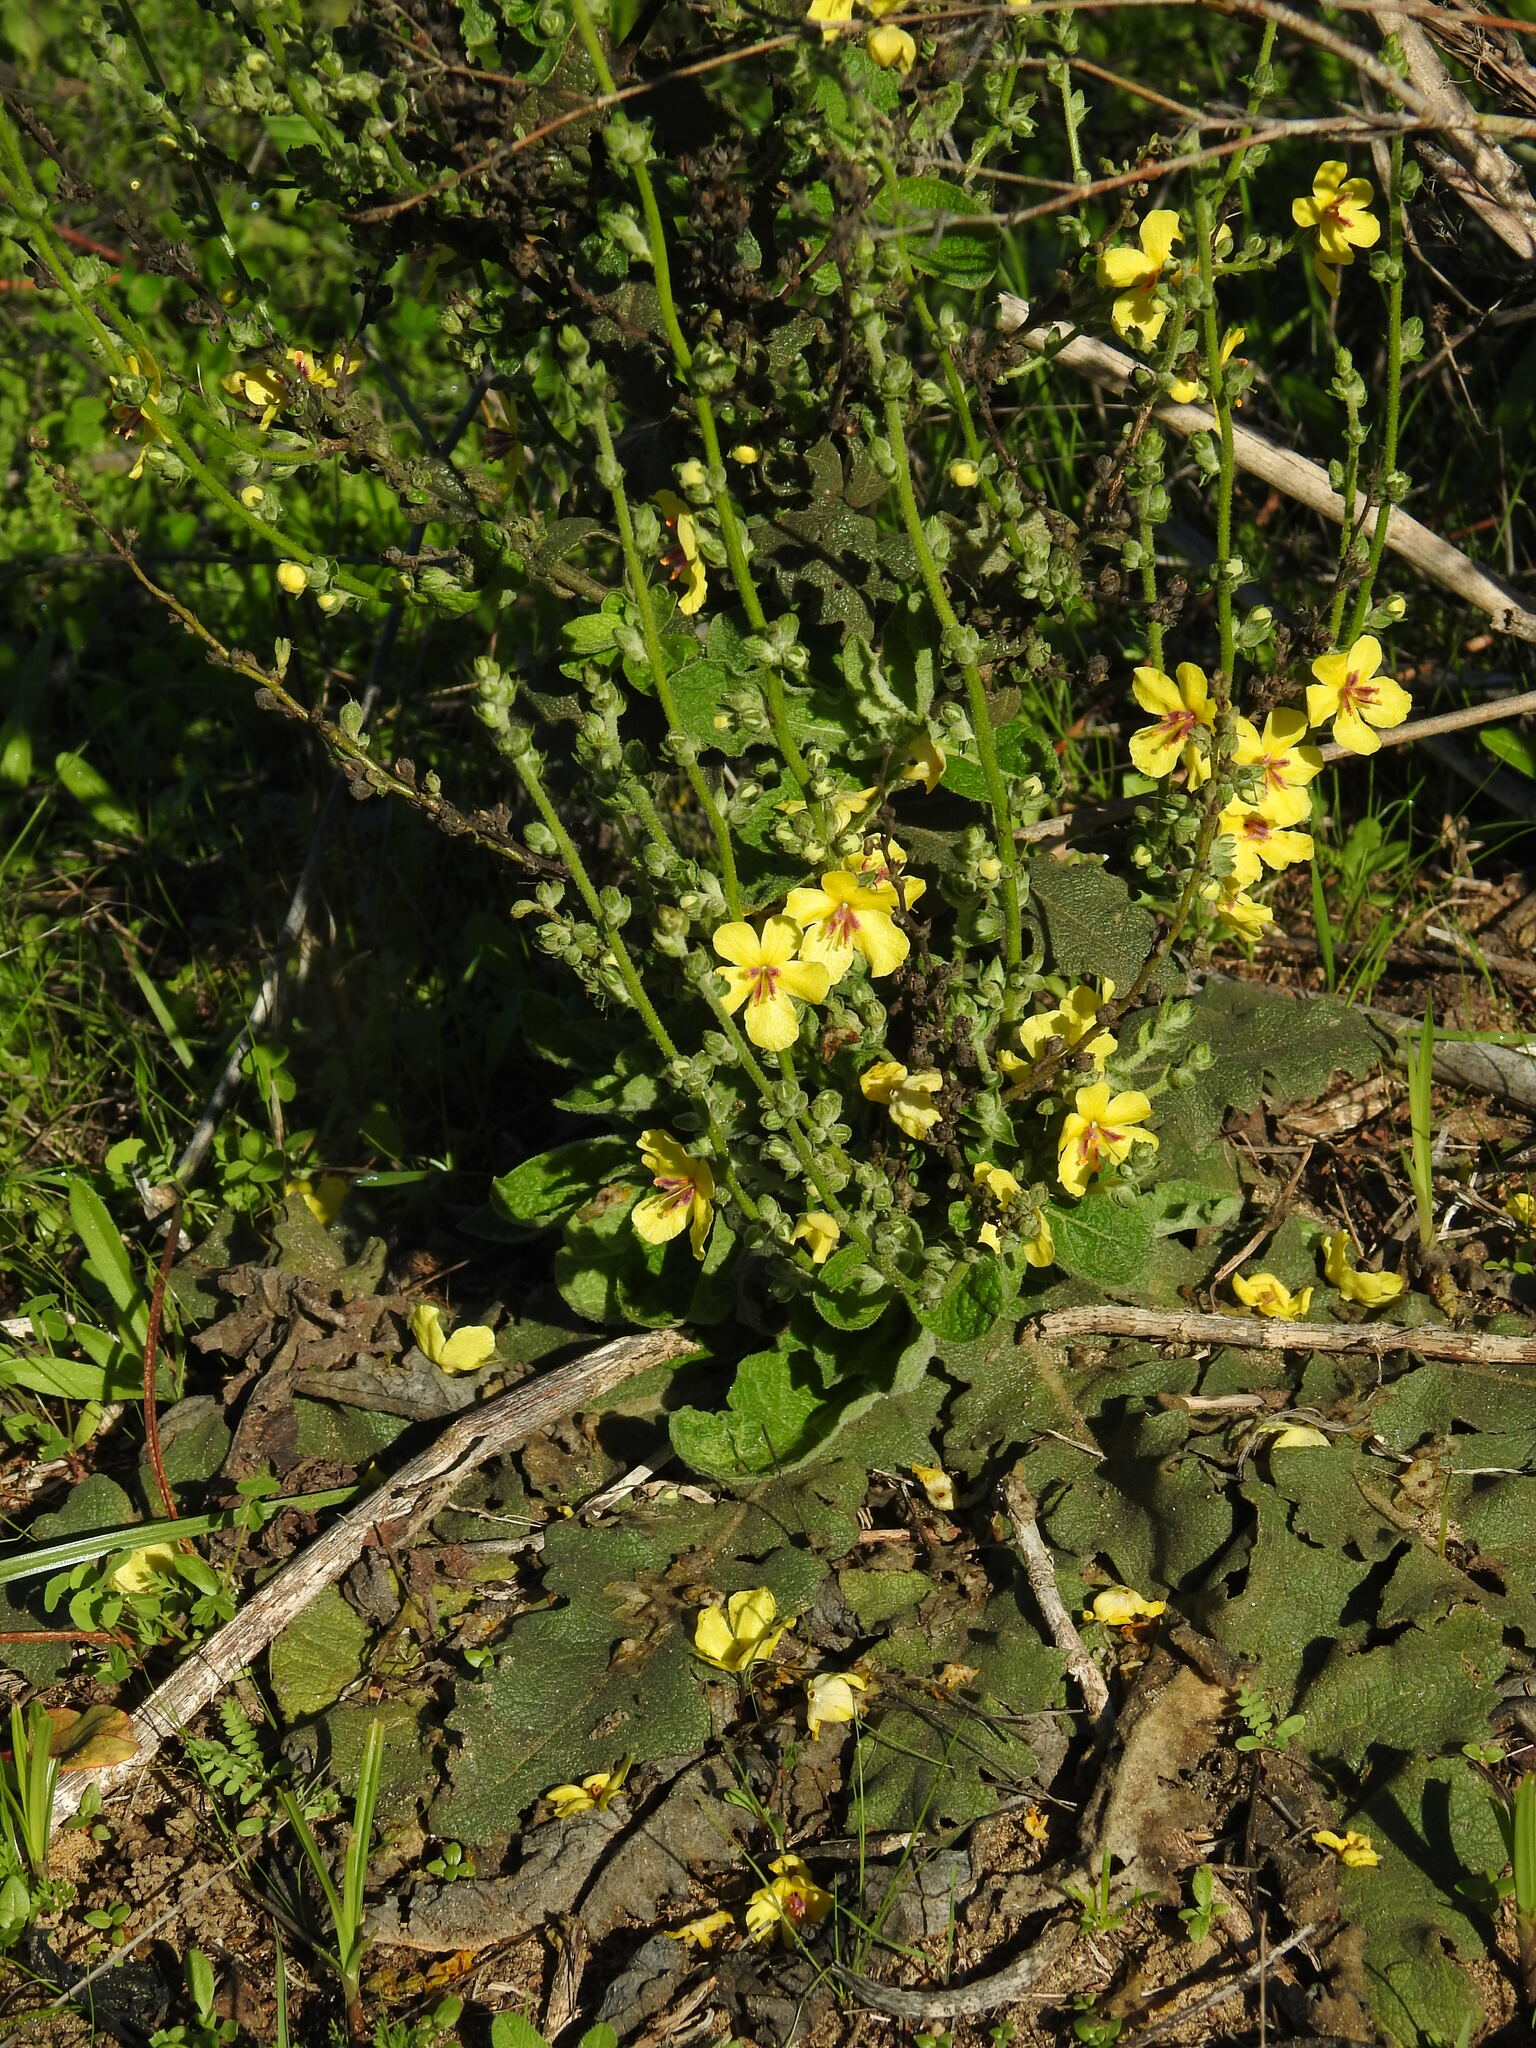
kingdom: Plantae
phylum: Tracheophyta
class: Magnoliopsida
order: Lamiales
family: Scrophulariaceae
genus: Verbascum
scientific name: Verbascum sinuatum
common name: Wavyleaf mullein
